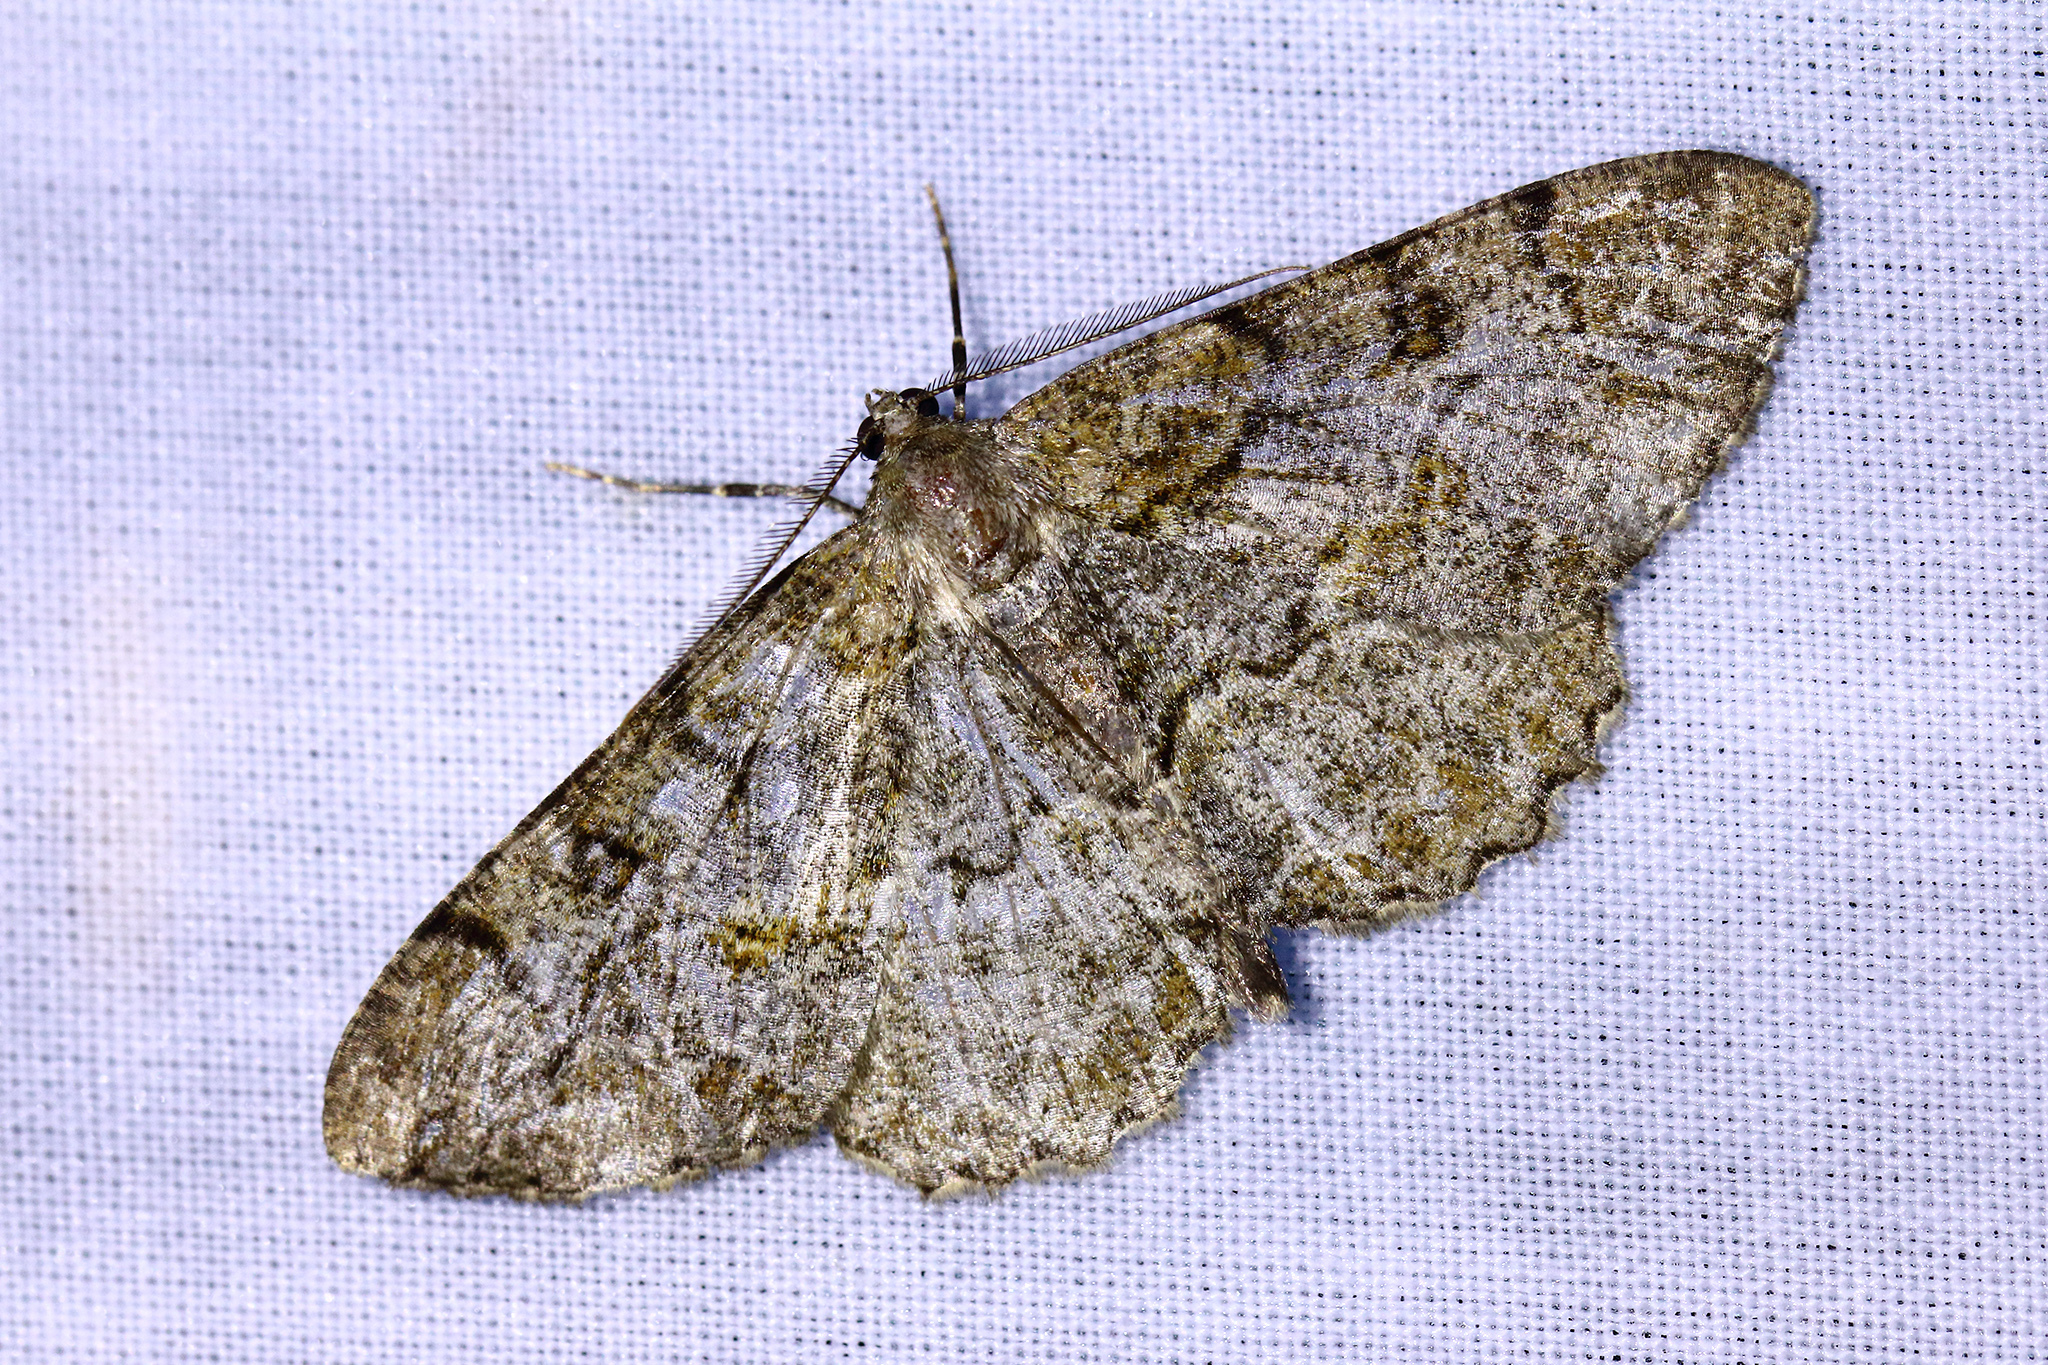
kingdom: Animalia
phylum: Arthropoda
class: Insecta
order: Lepidoptera
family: Geometridae
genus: Alcis
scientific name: Alcis repandata
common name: Mottled beauty
